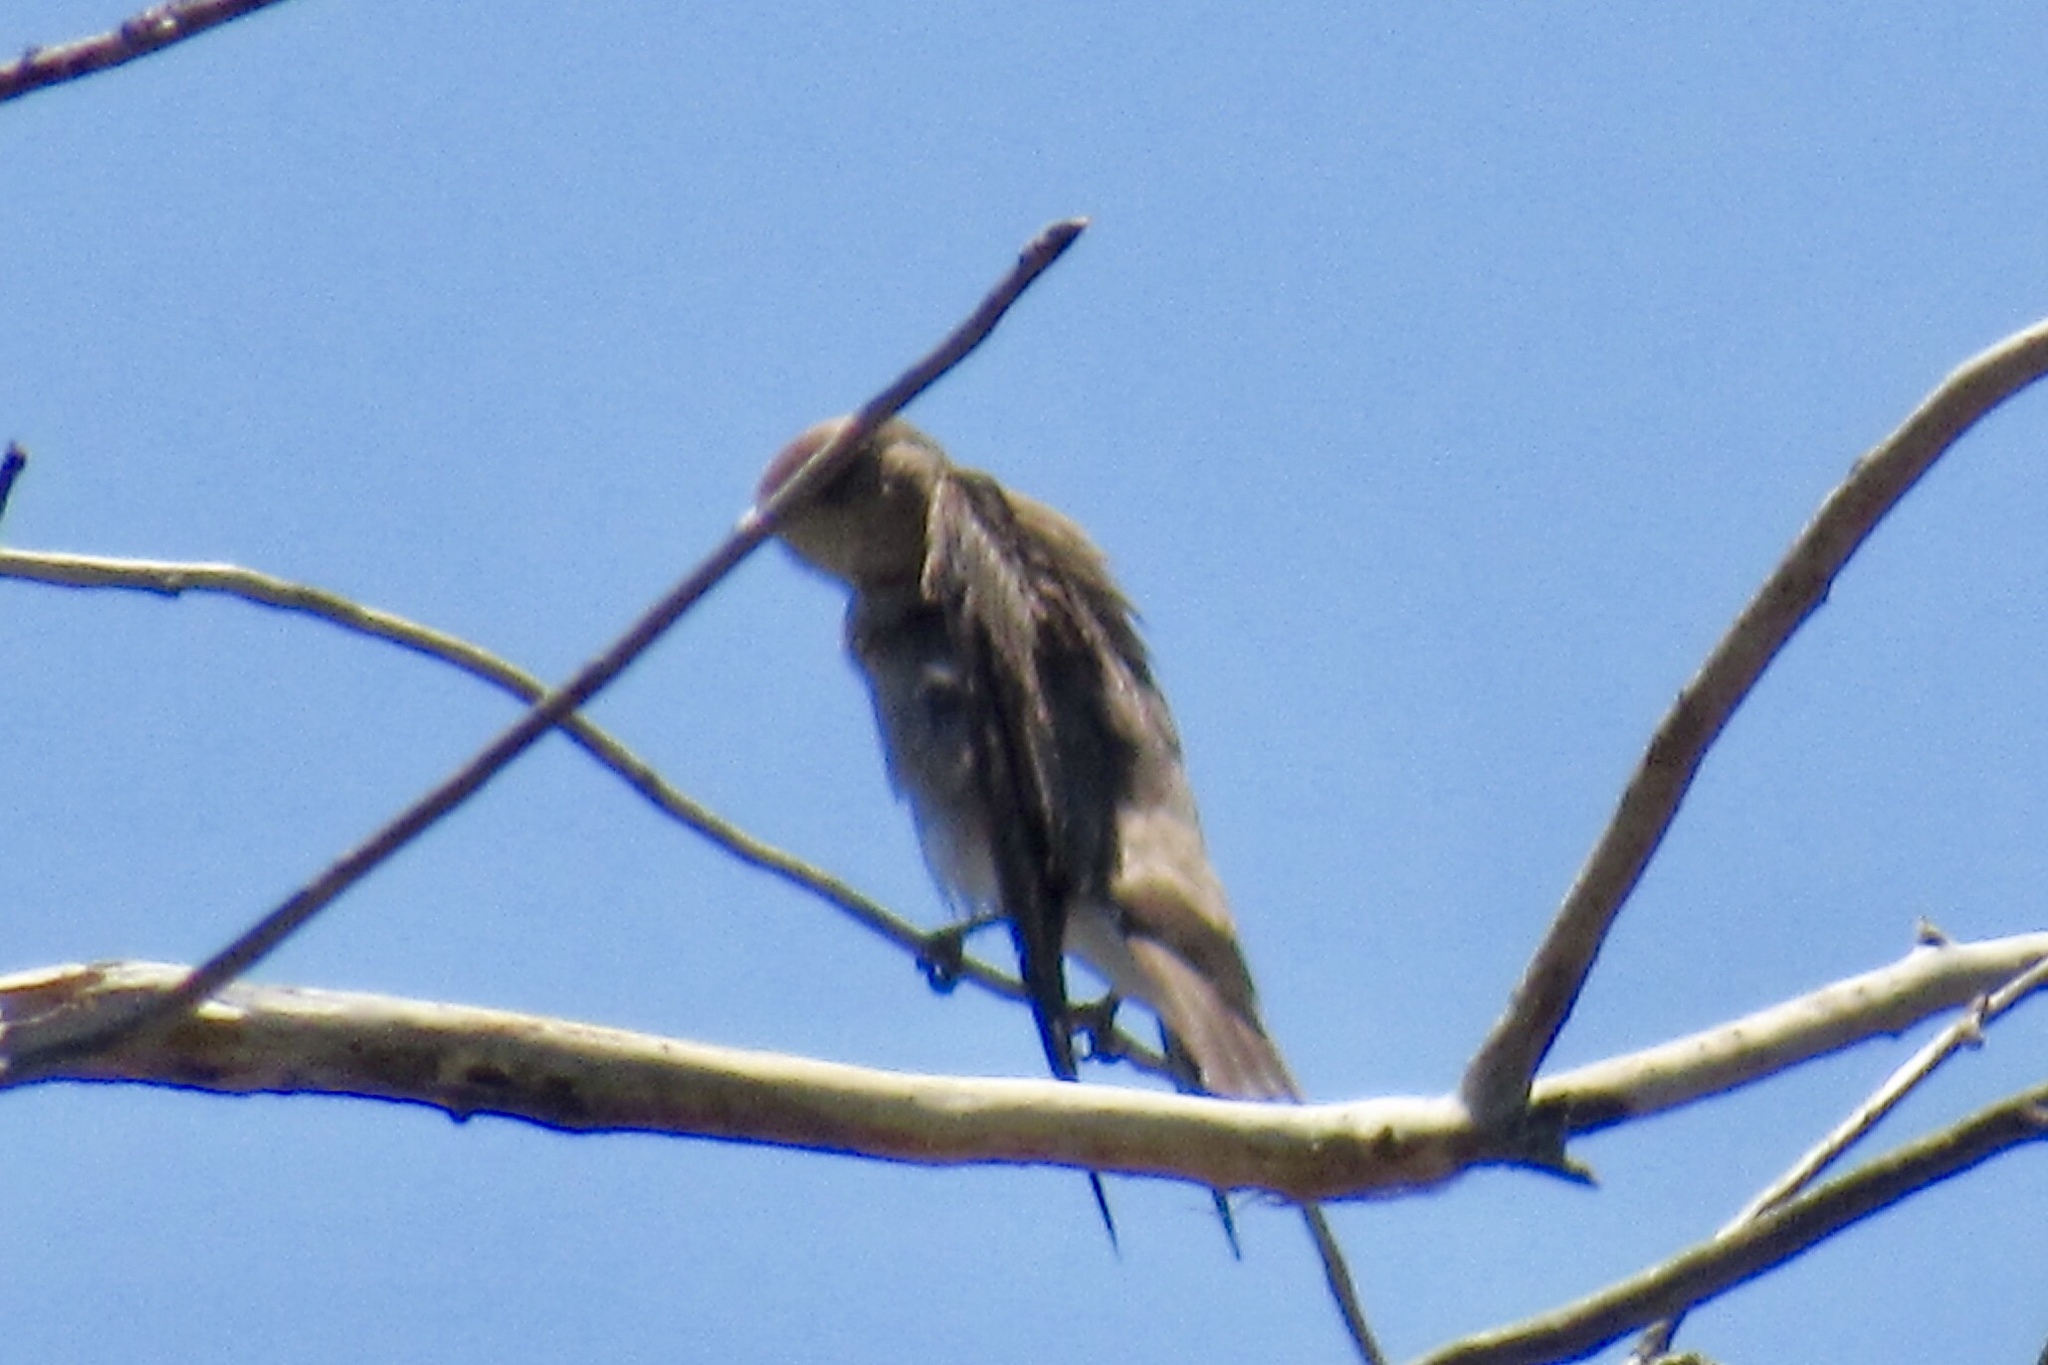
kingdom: Animalia
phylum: Chordata
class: Aves
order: Passeriformes
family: Hirundinidae
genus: Stelgidopteryx
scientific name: Stelgidopteryx serripennis
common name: Northern rough-winged swallow
